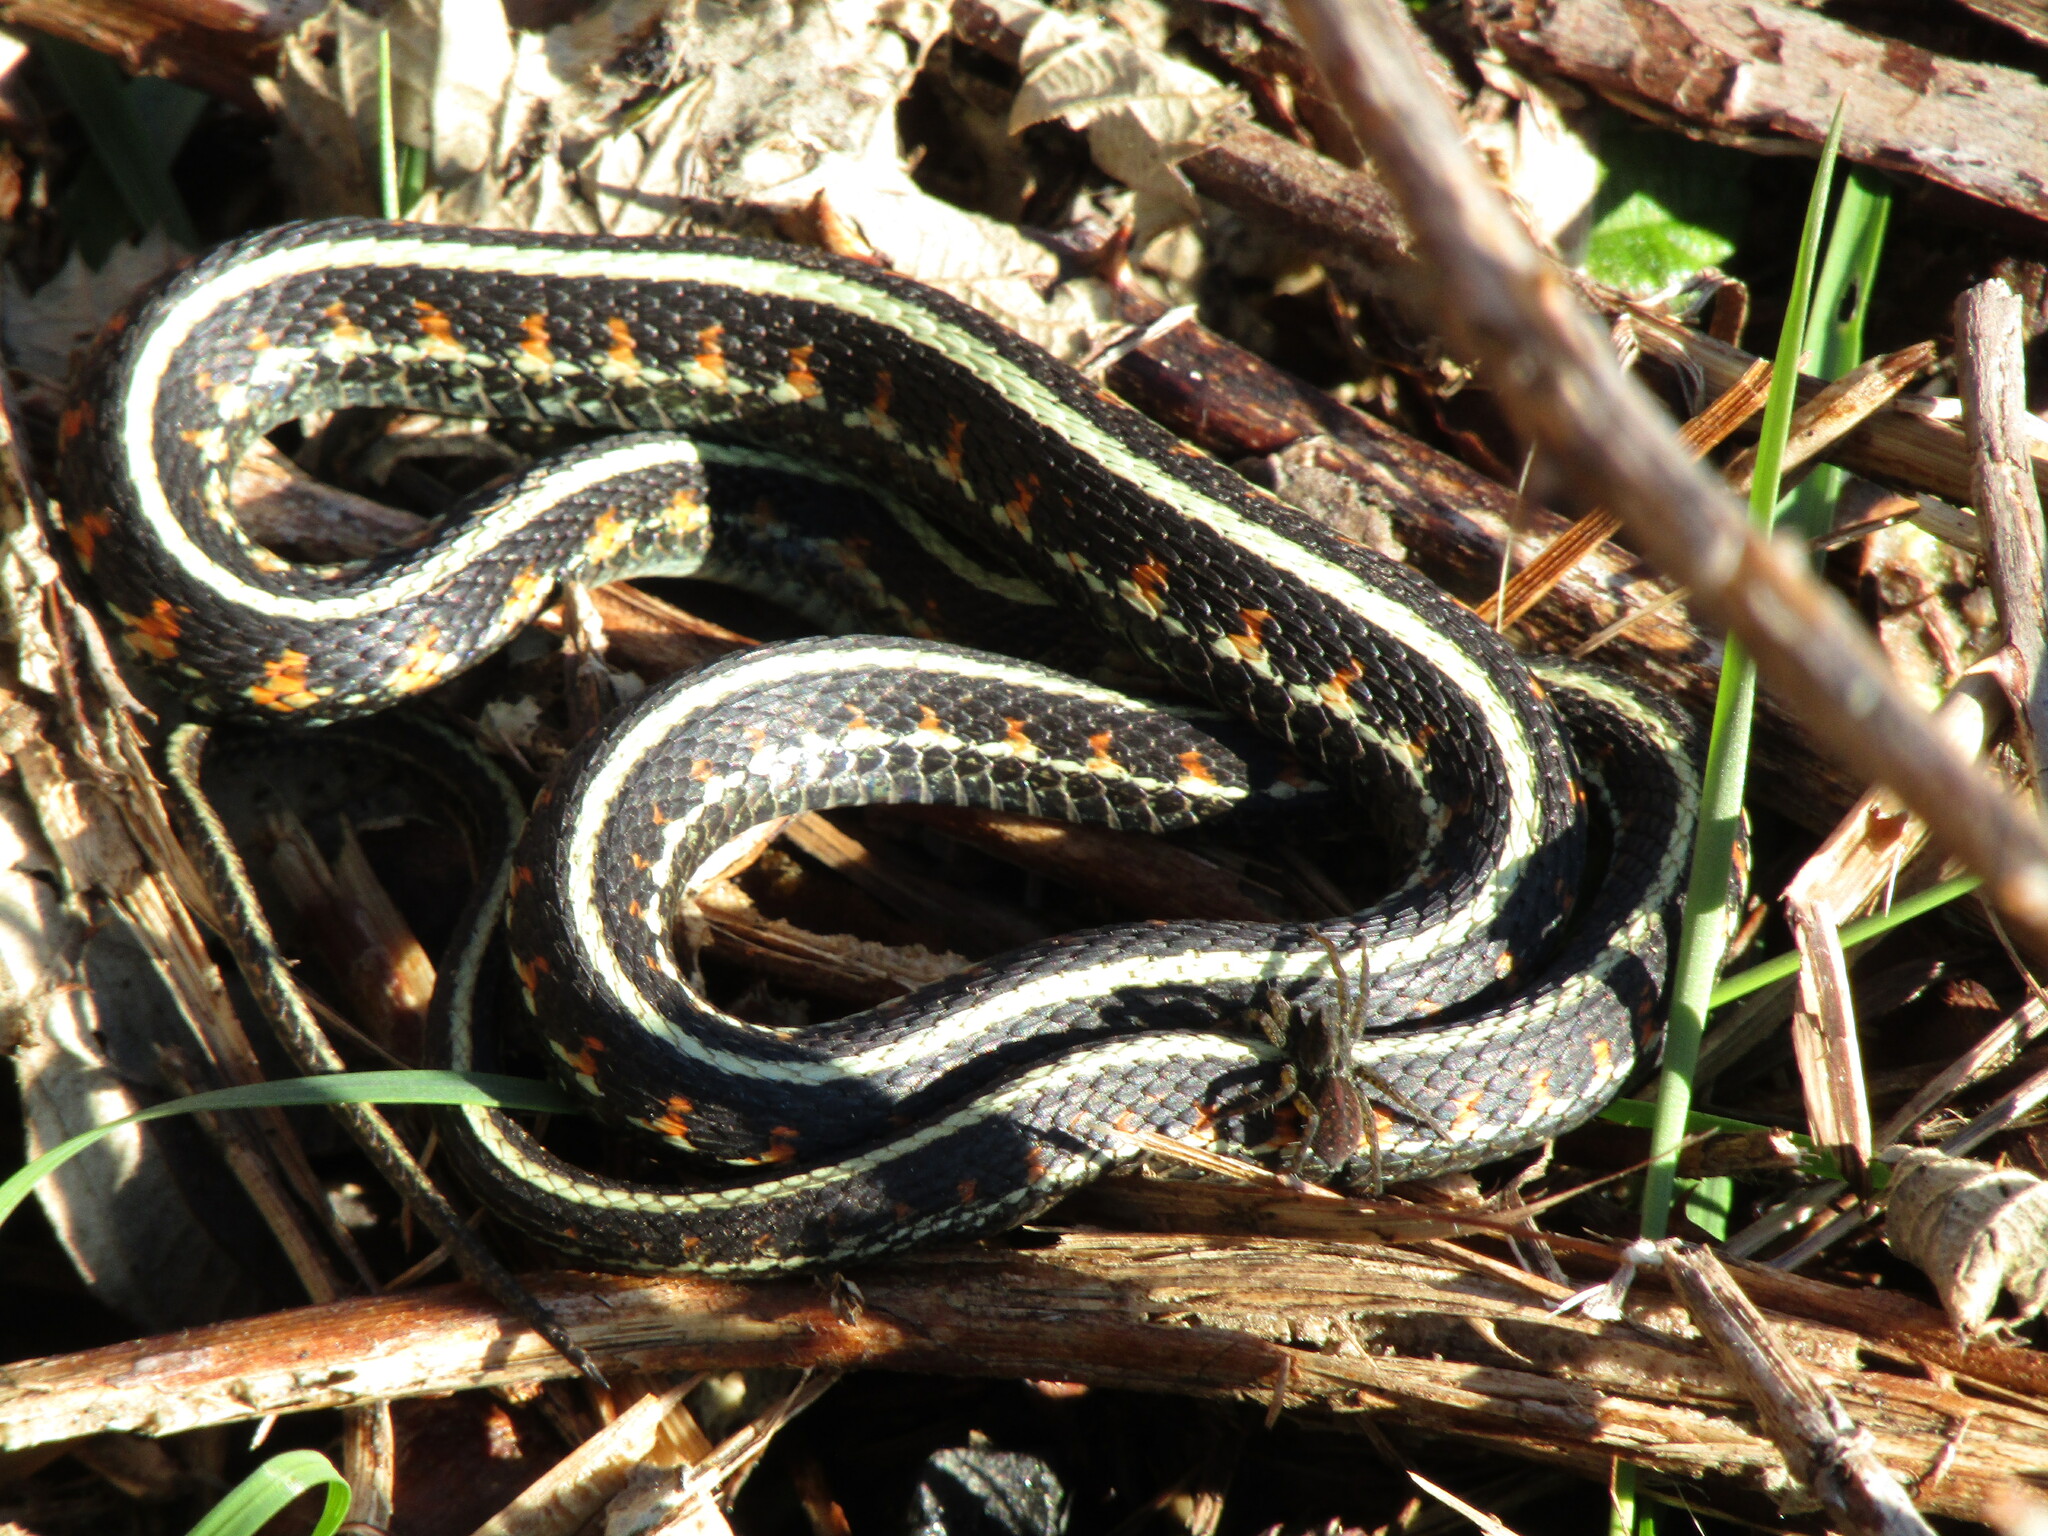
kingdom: Animalia
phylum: Chordata
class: Squamata
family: Colubridae
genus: Thamnophis
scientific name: Thamnophis sirtalis
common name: Common garter snake
